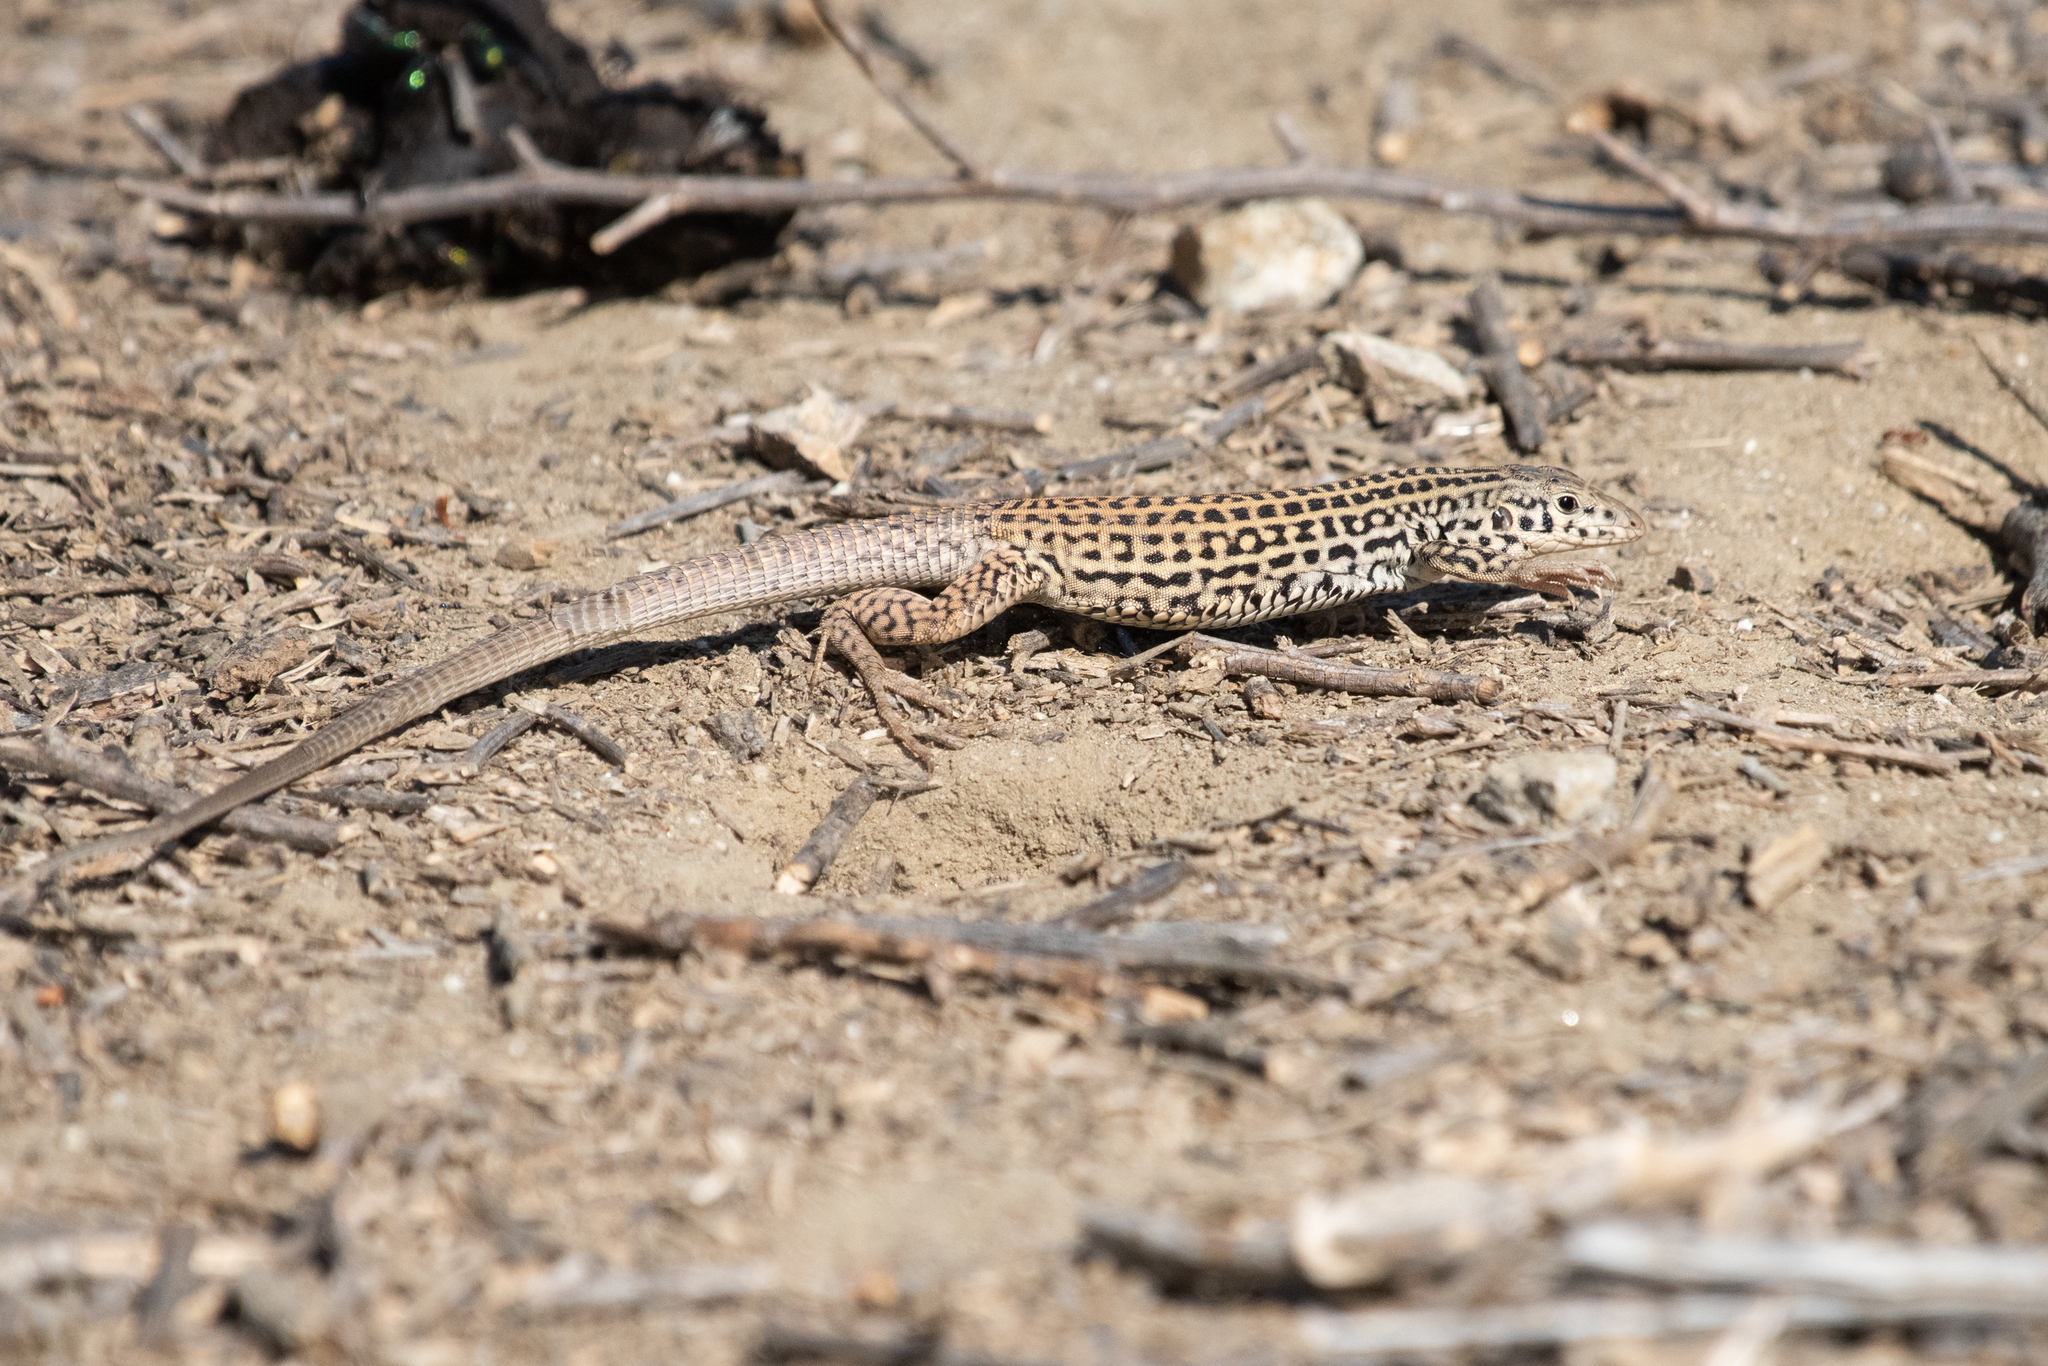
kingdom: Animalia
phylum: Chordata
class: Squamata
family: Teiidae
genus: Aspidoscelis
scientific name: Aspidoscelis tigris
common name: Tiger whiptail
